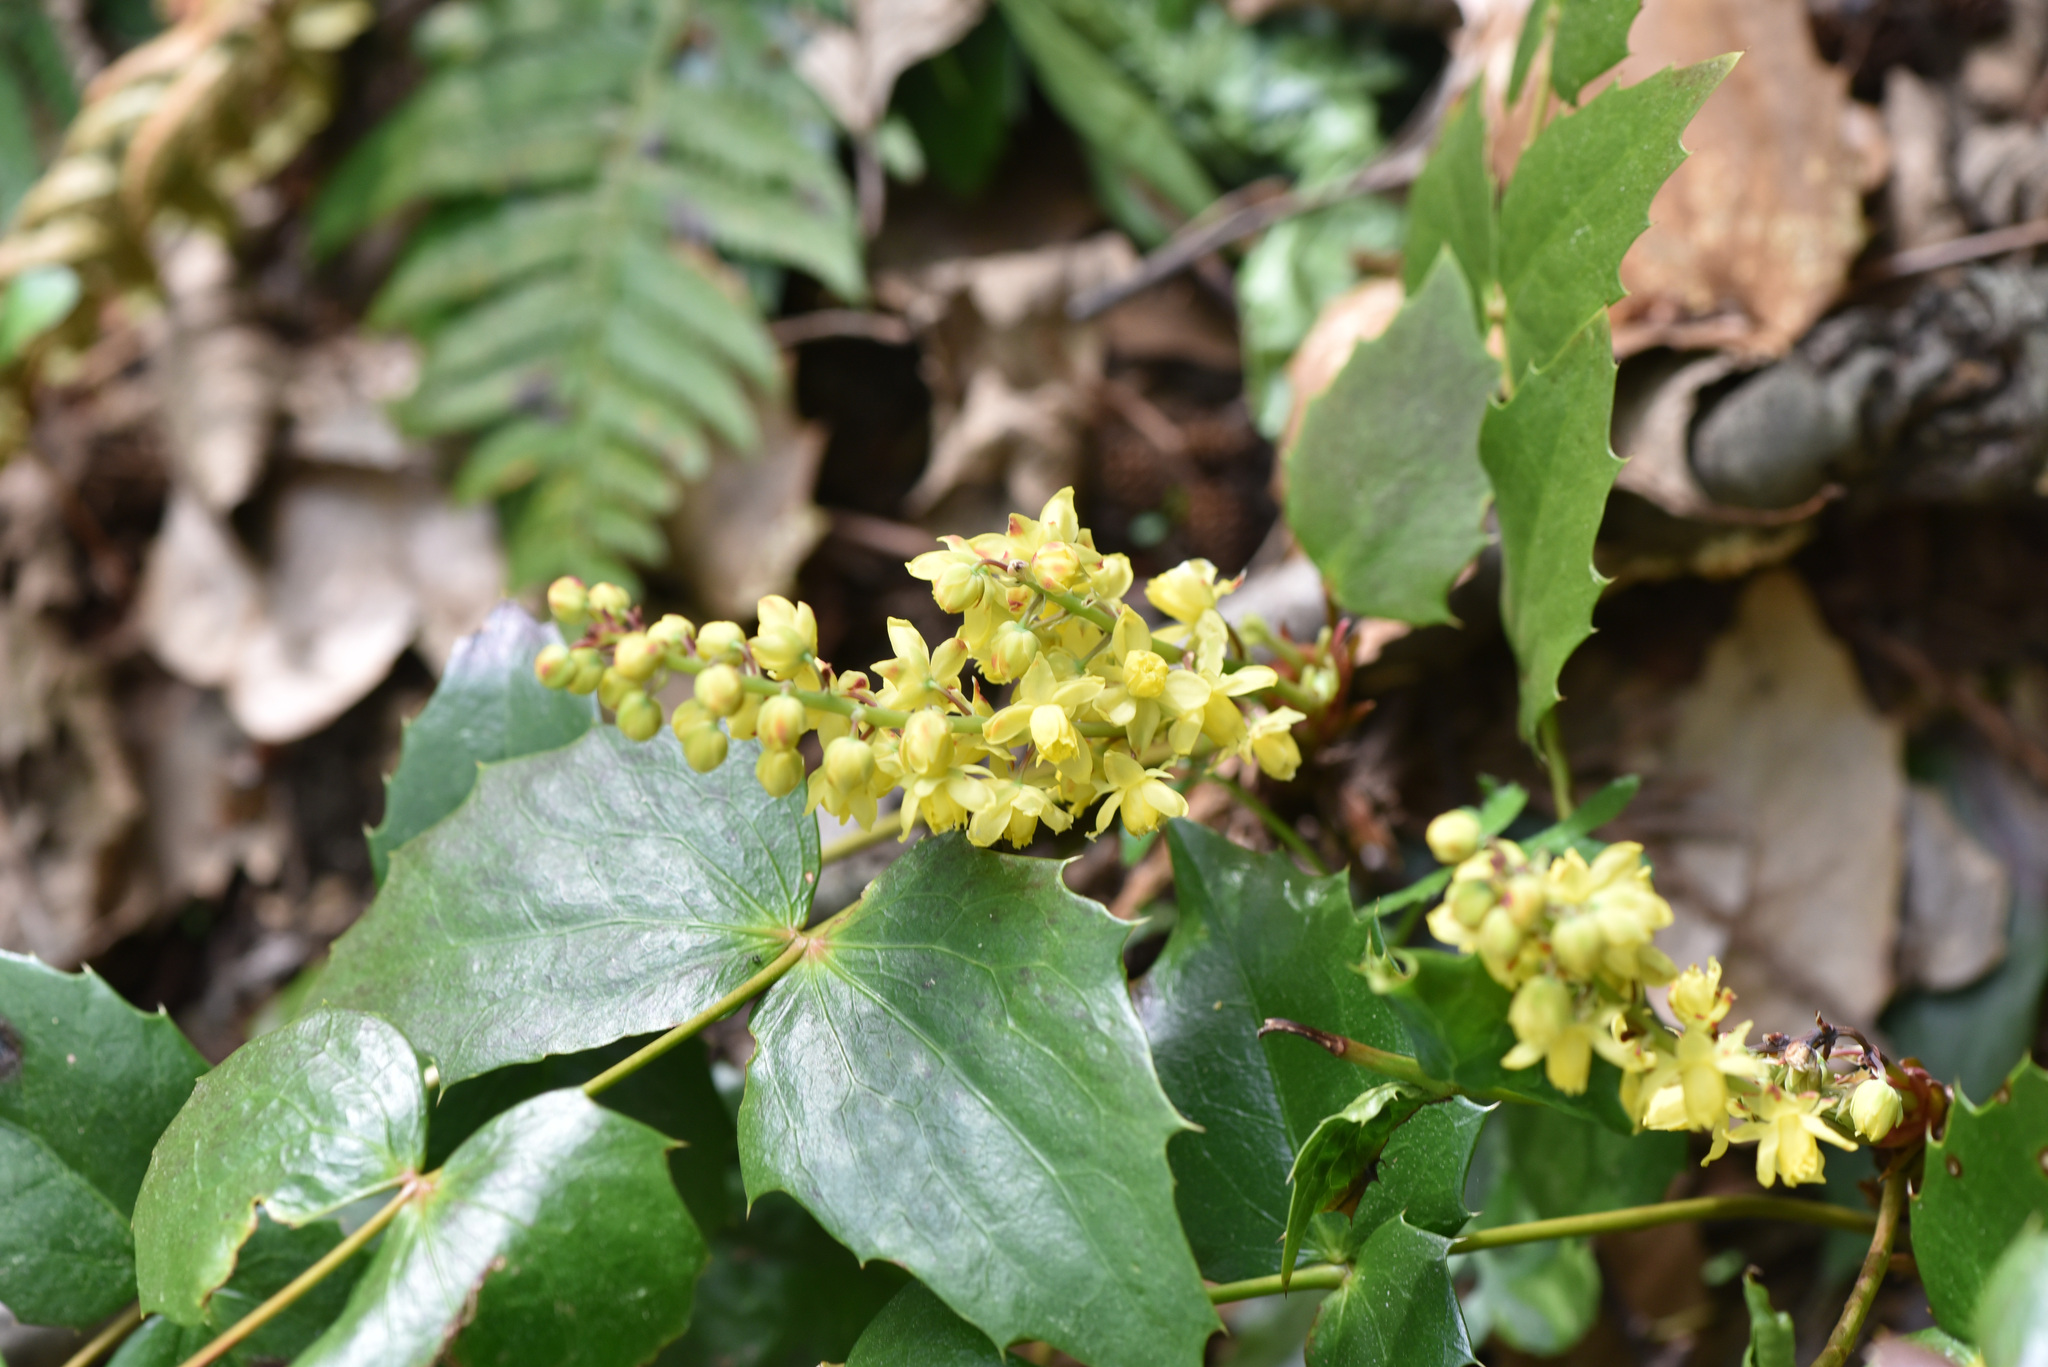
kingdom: Plantae
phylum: Tracheophyta
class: Magnoliopsida
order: Ranunculales
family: Berberidaceae
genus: Mahonia
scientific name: Mahonia nervosa
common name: Cascade oregon-grape
